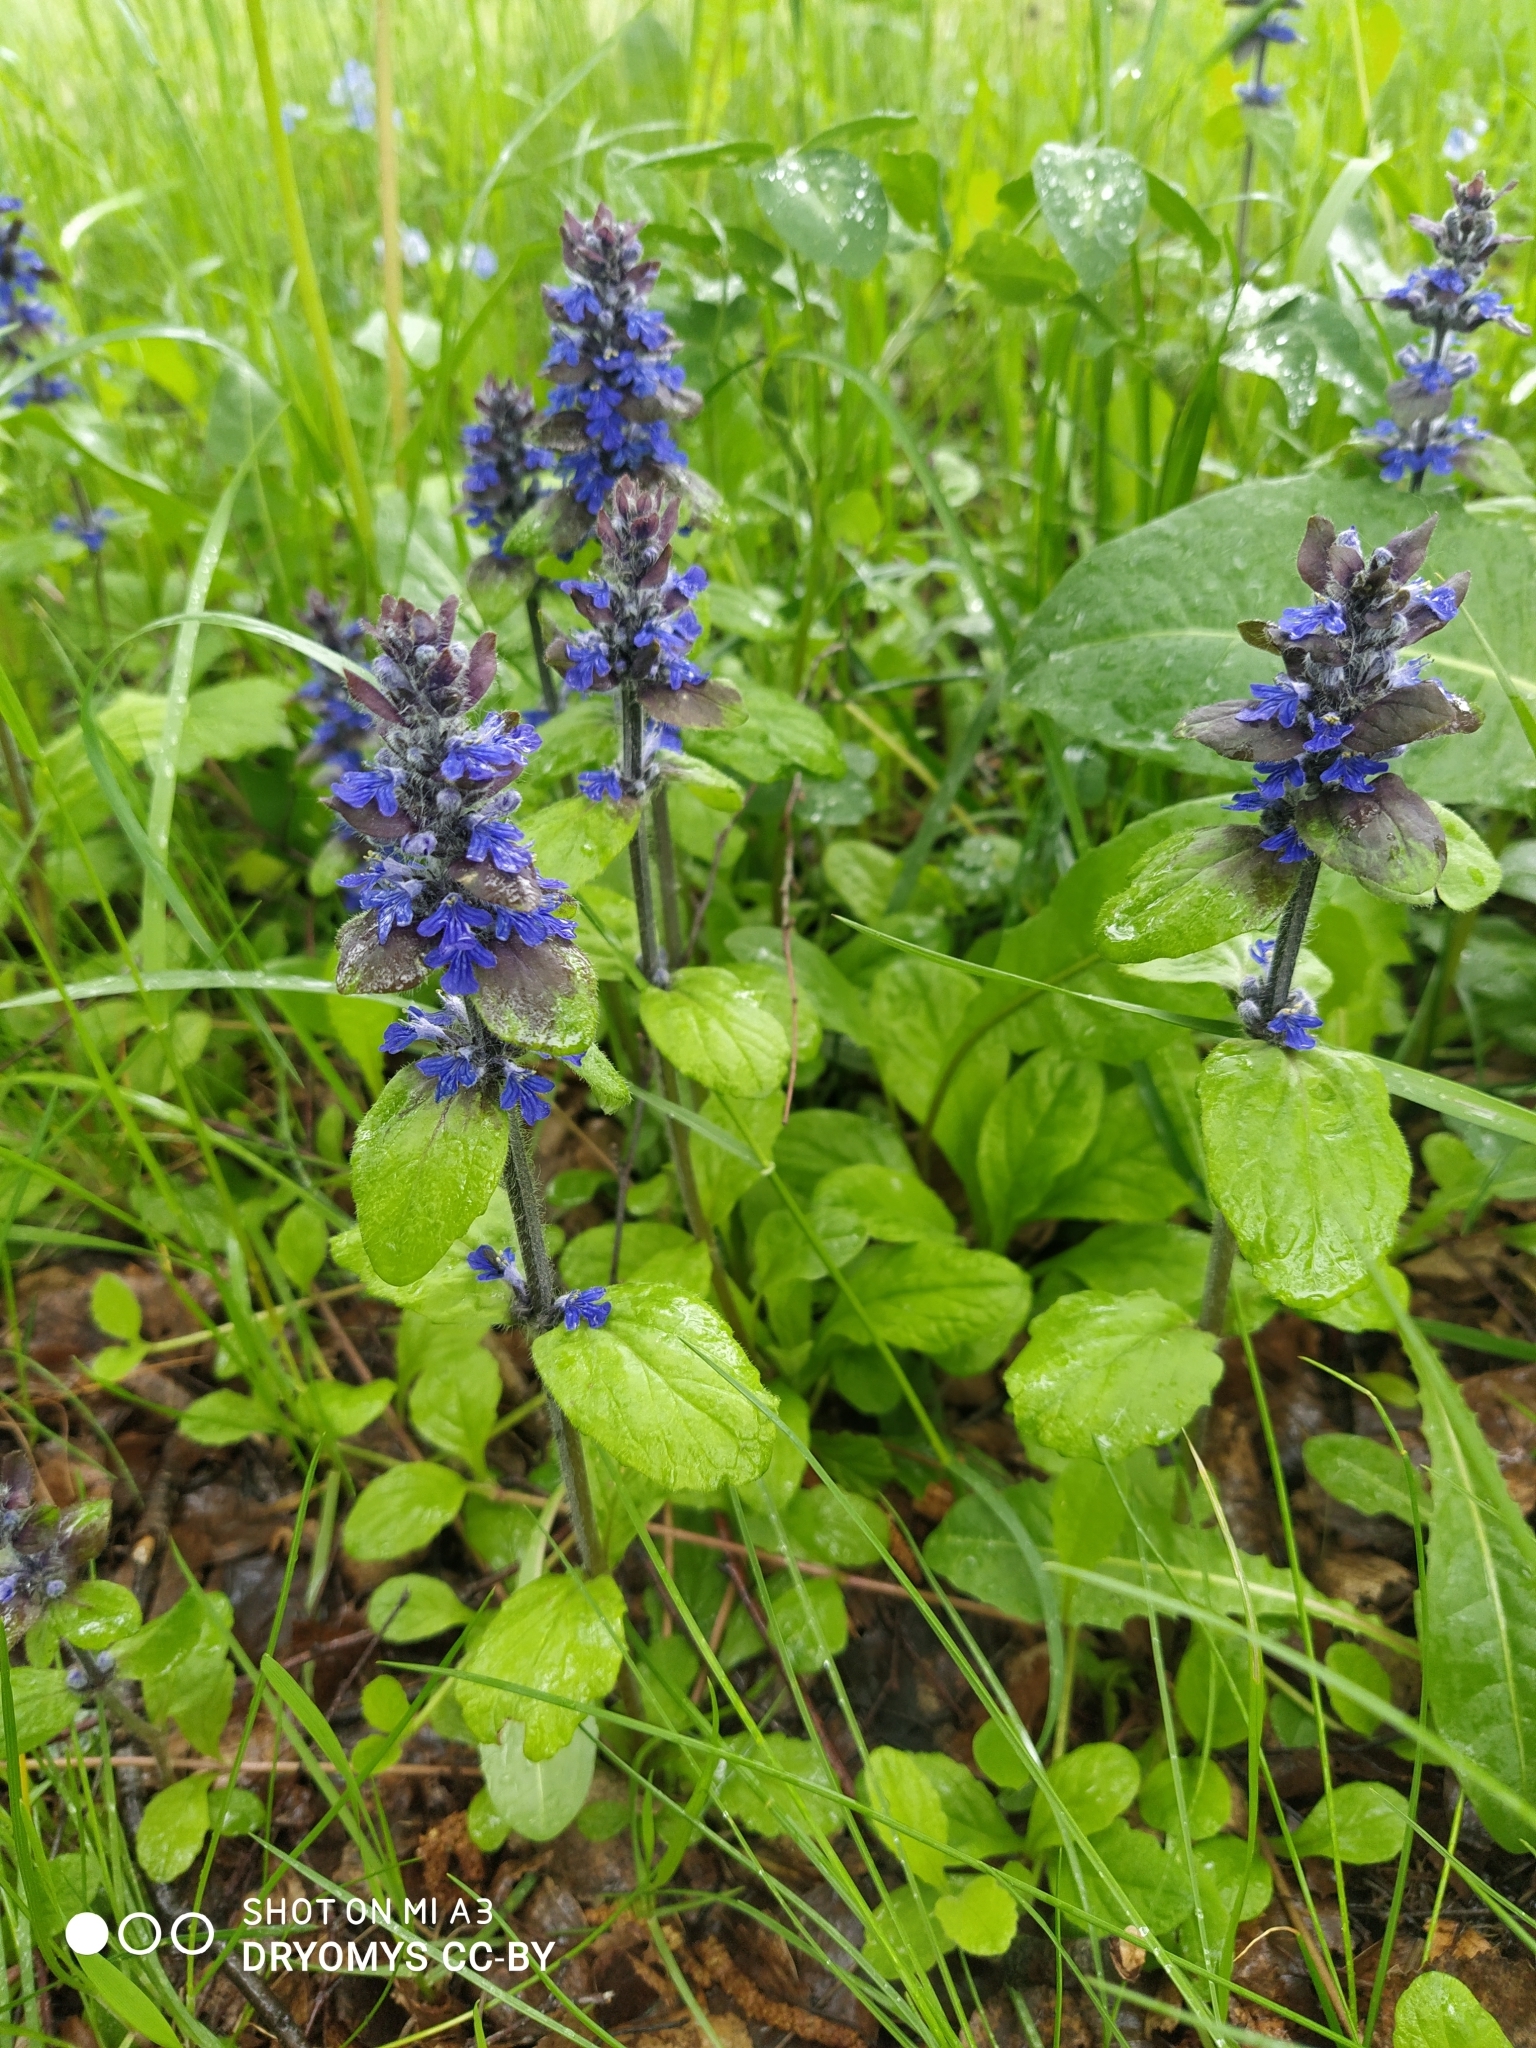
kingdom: Plantae
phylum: Tracheophyta
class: Magnoliopsida
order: Lamiales
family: Lamiaceae
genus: Ajuga
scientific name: Ajuga reptans
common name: Bugle
